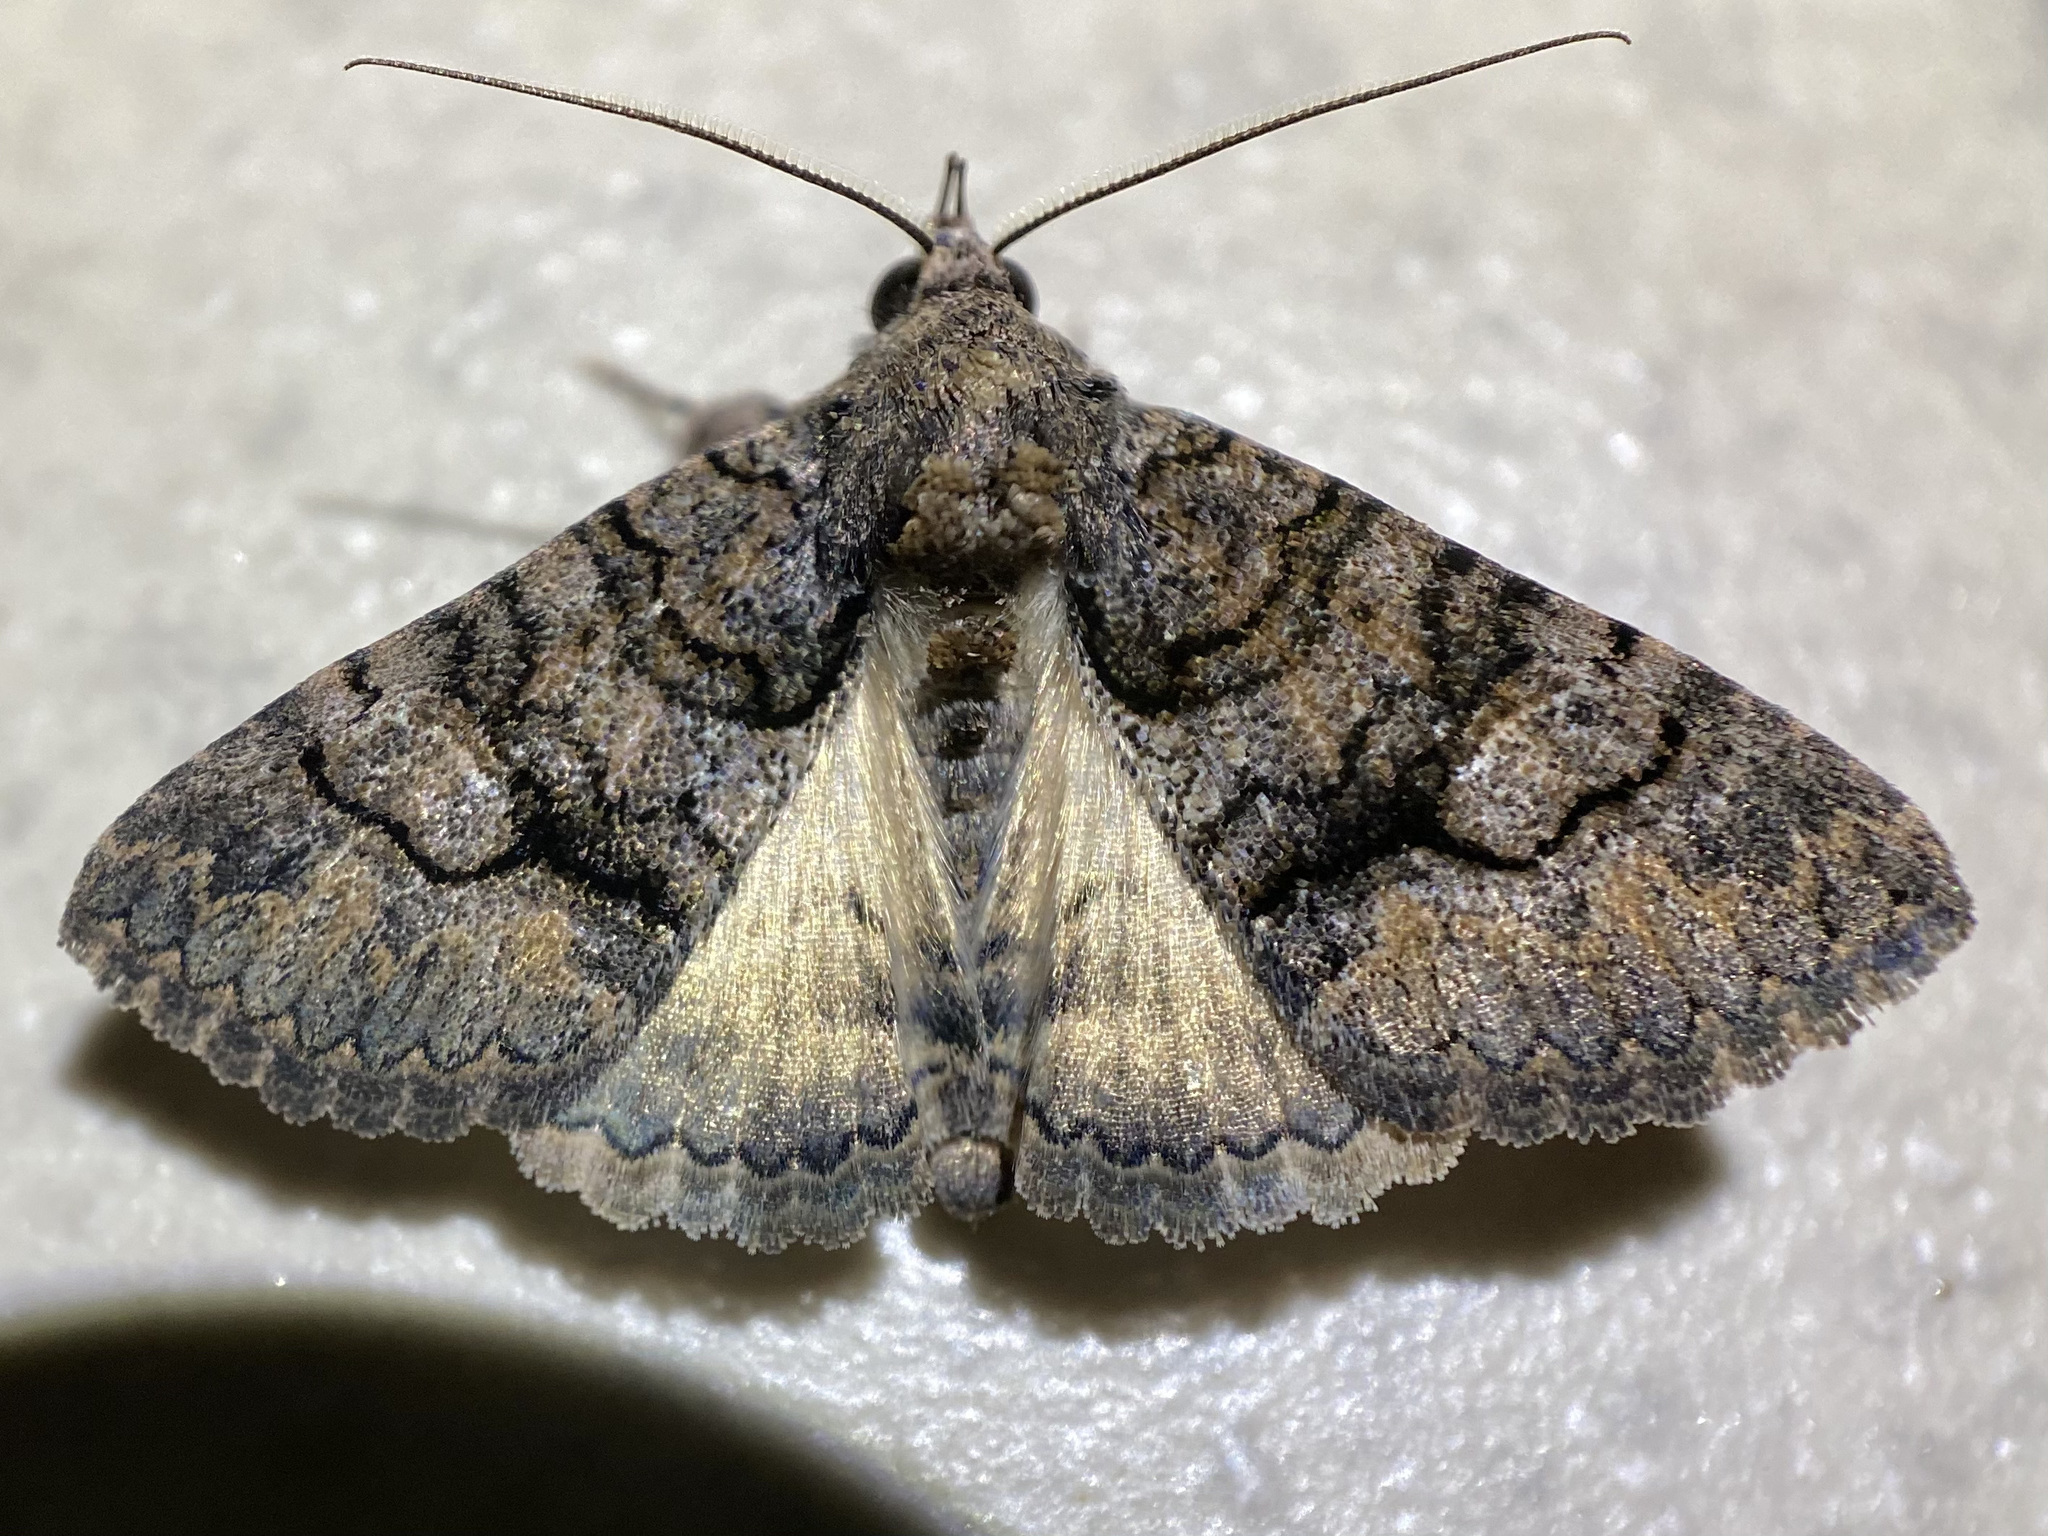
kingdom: Animalia
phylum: Arthropoda
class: Insecta
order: Lepidoptera
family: Erebidae
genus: Elousa
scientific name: Elousa mima
